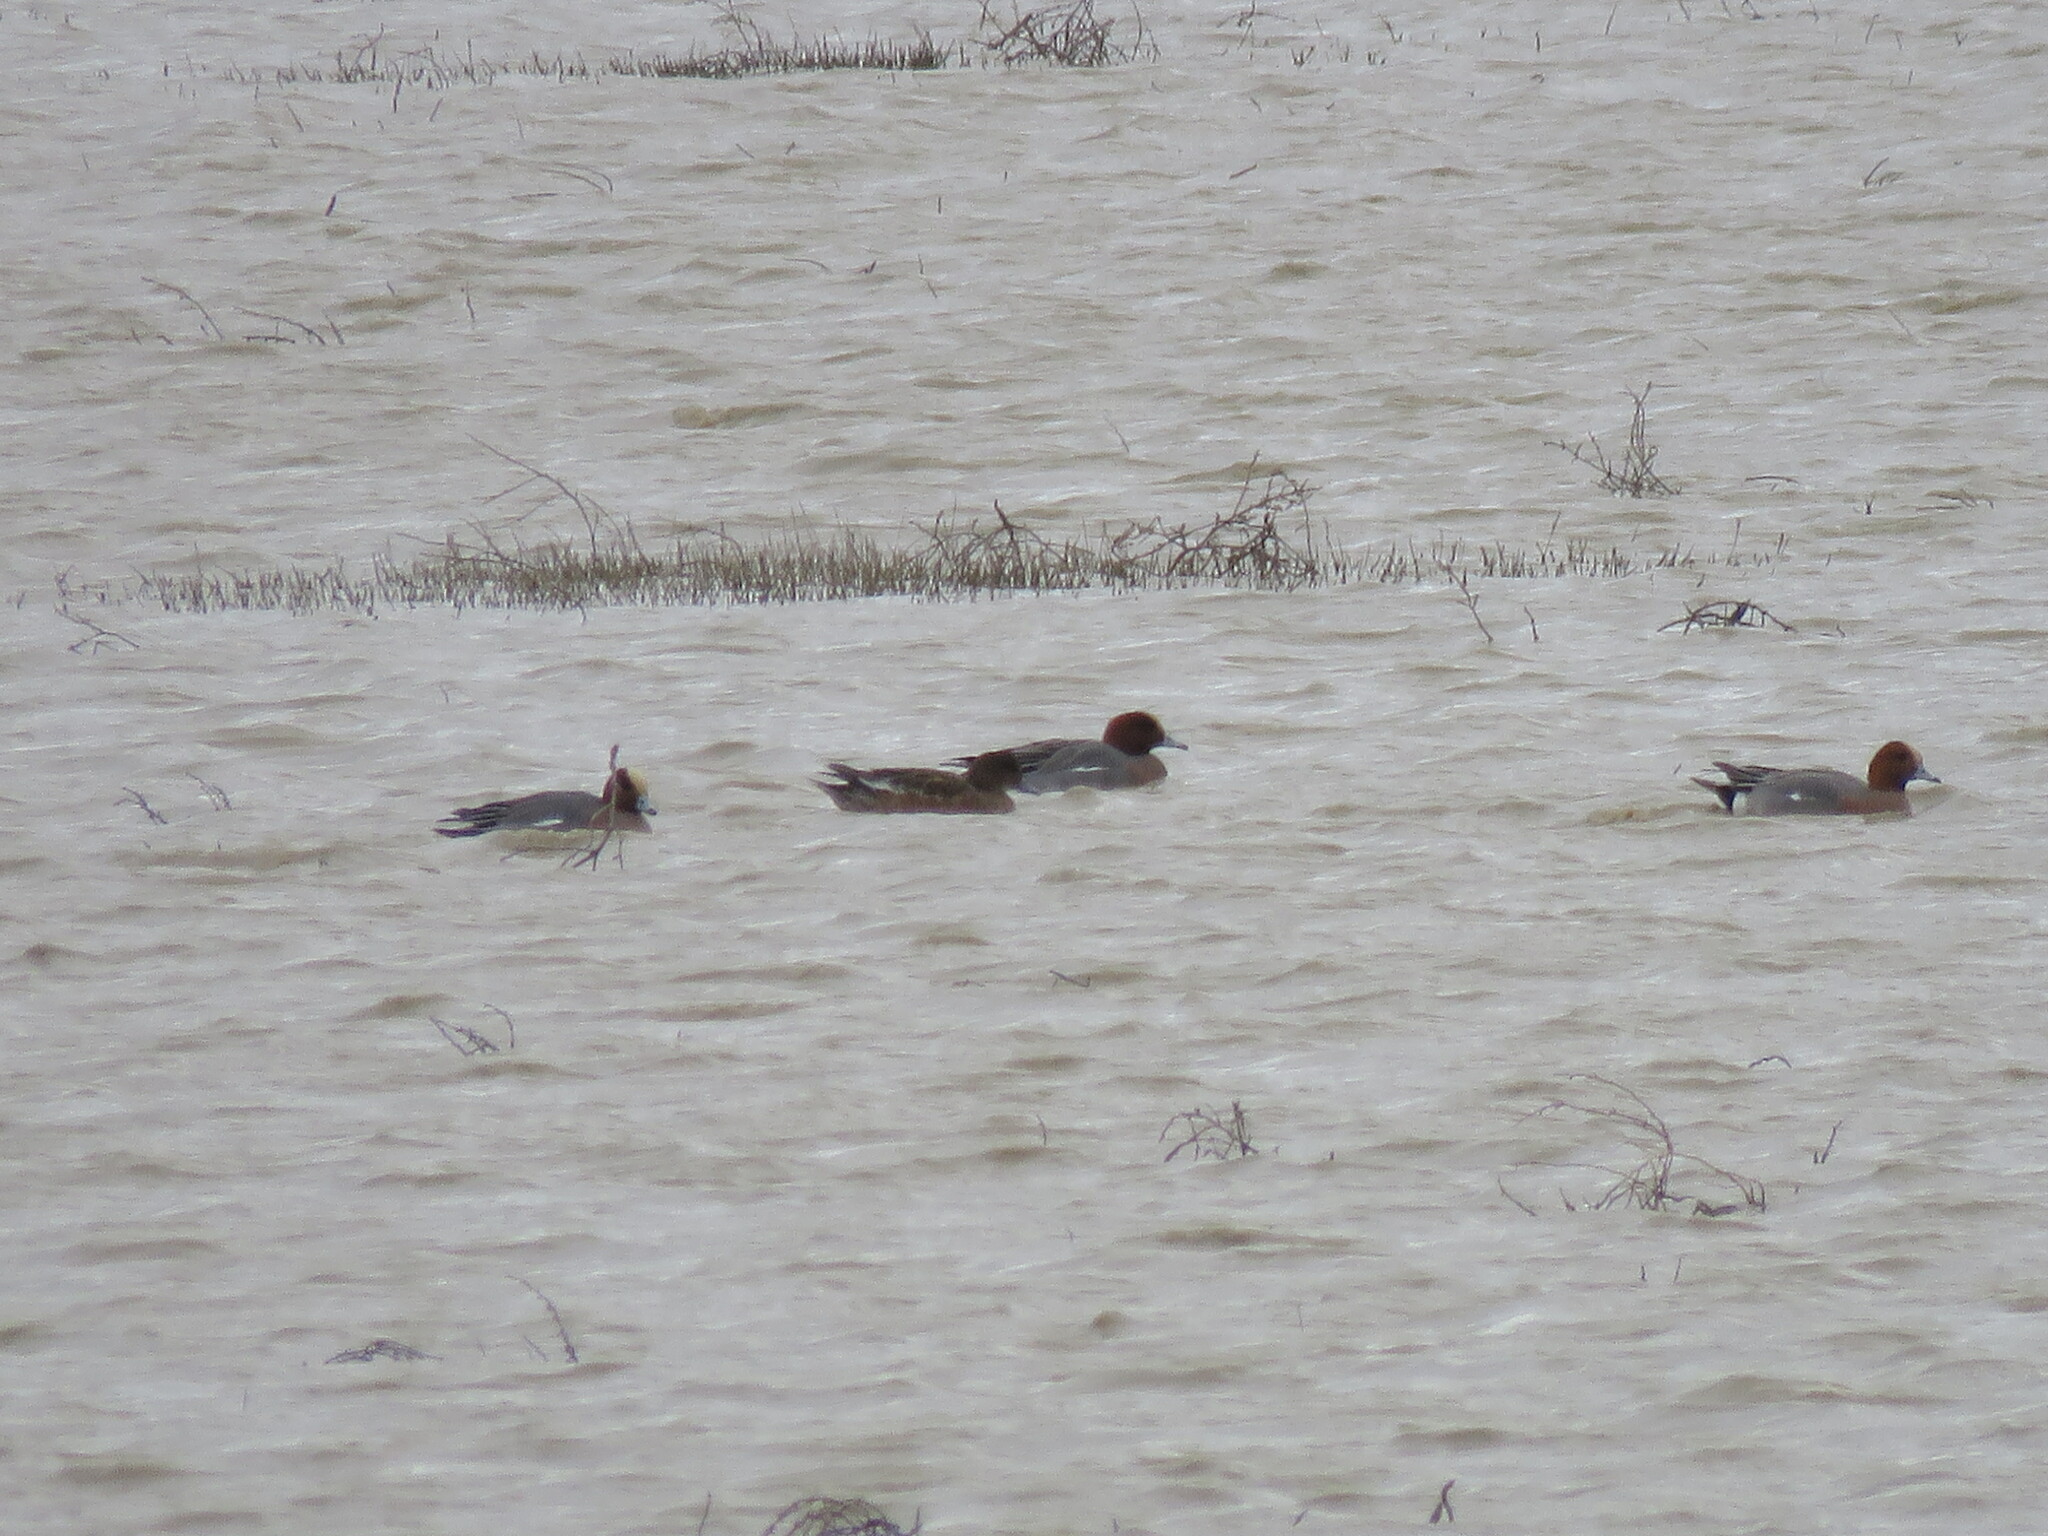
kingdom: Animalia
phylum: Chordata
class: Aves
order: Anseriformes
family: Anatidae
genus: Mareca
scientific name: Mareca penelope
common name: Eurasian wigeon
